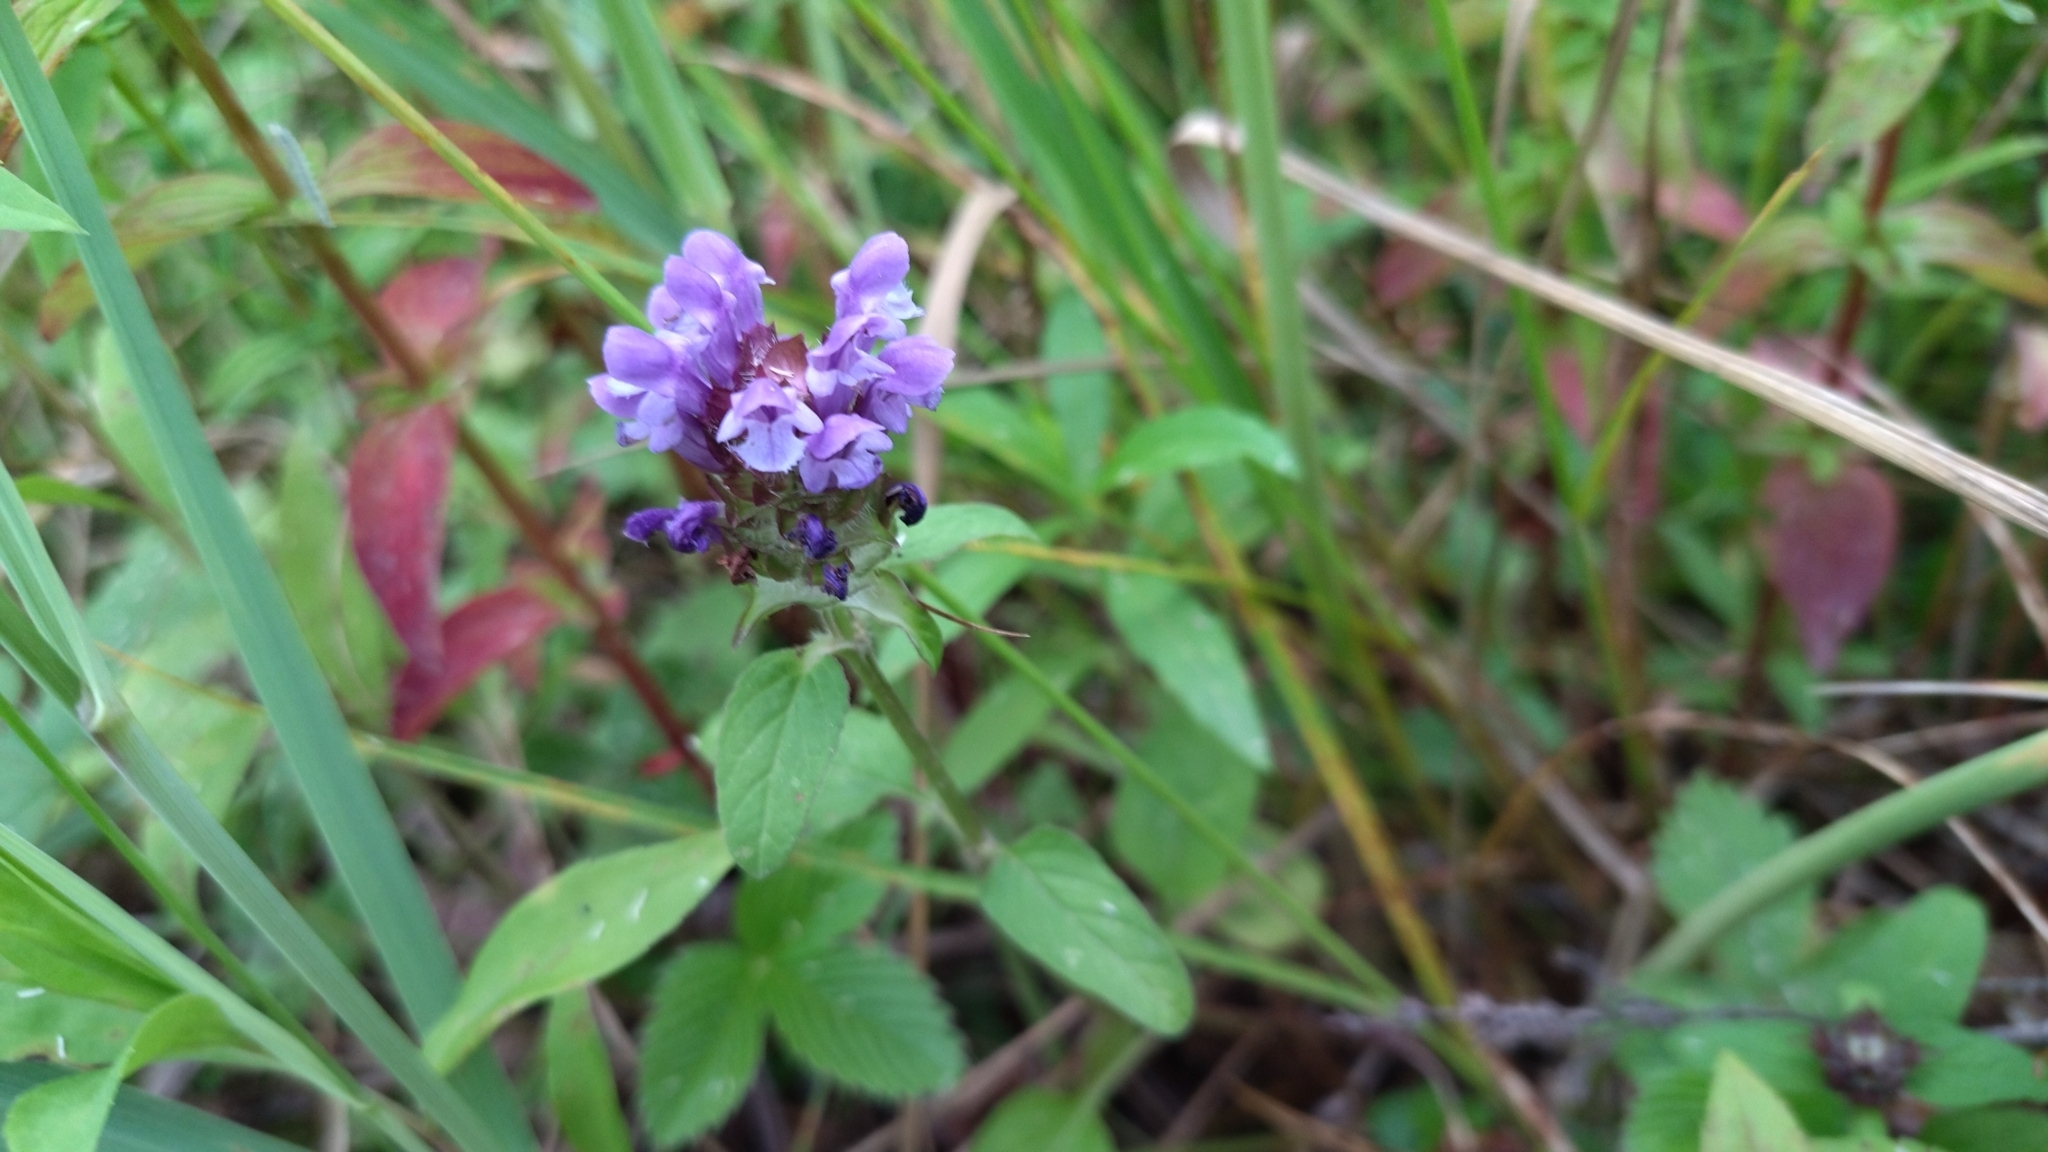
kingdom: Plantae
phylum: Tracheophyta
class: Magnoliopsida
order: Lamiales
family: Lamiaceae
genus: Prunella
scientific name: Prunella vulgaris
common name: Heal-all
